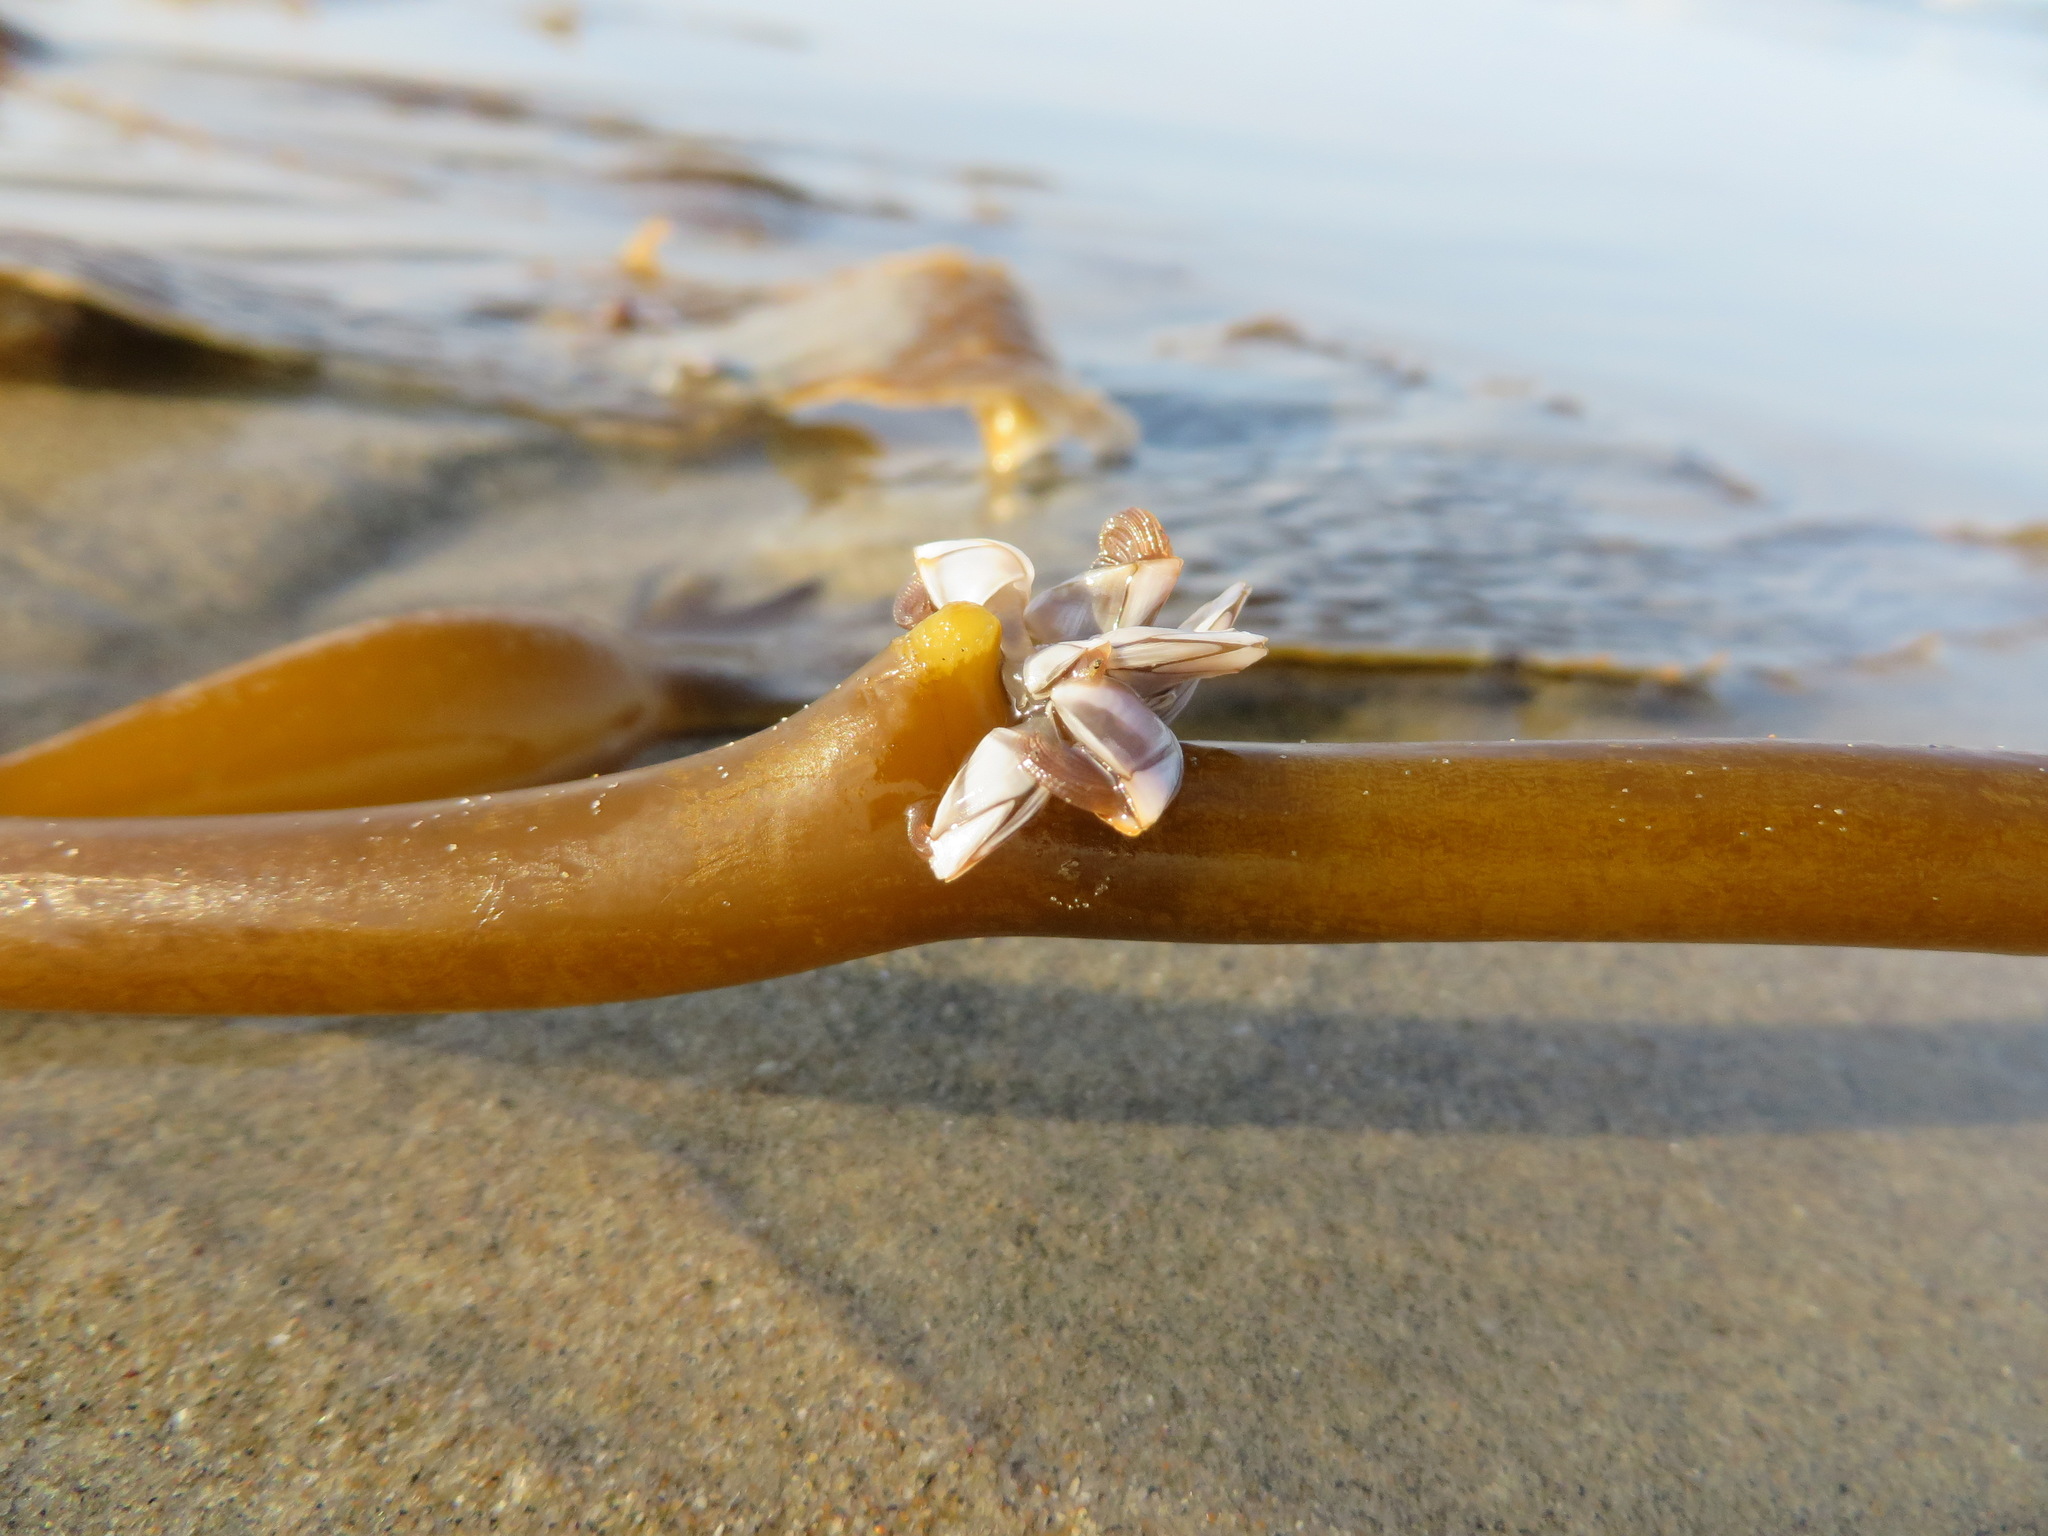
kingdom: Animalia
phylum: Arthropoda
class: Maxillopoda
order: Pedunculata
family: Lepadidae
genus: Lepas
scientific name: Lepas pacifica
